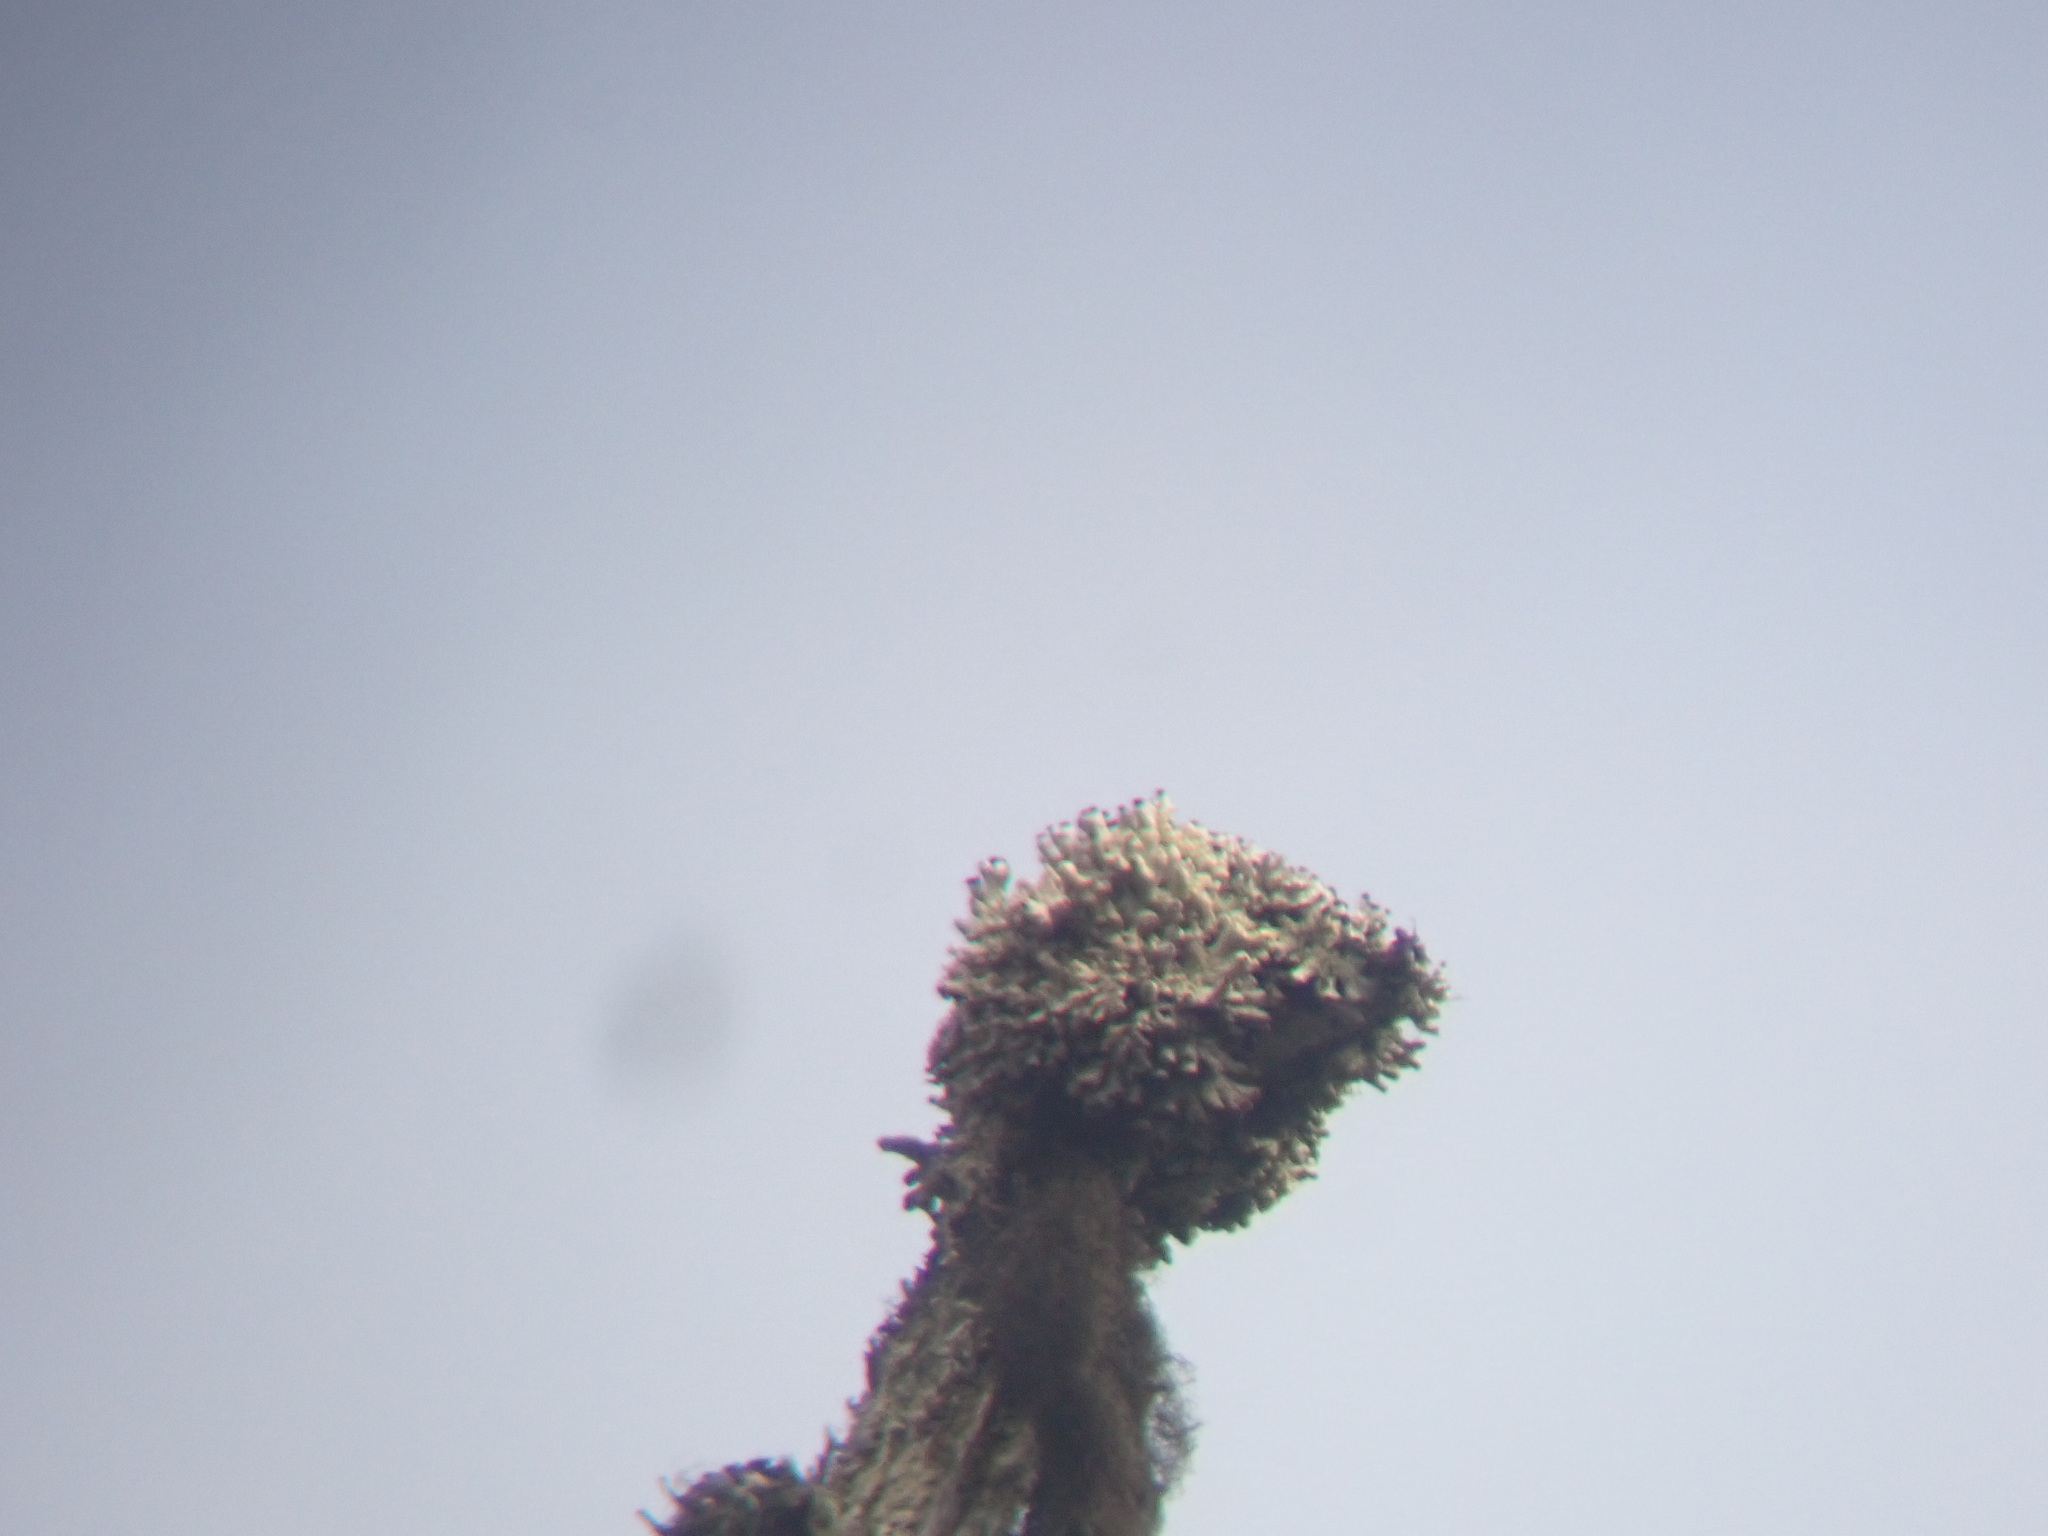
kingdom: Fungi
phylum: Ascomycota
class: Lecanoromycetes
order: Caliciales
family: Caliciaceae
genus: Acroscyphus
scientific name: Acroscyphus sphaerophoroides
